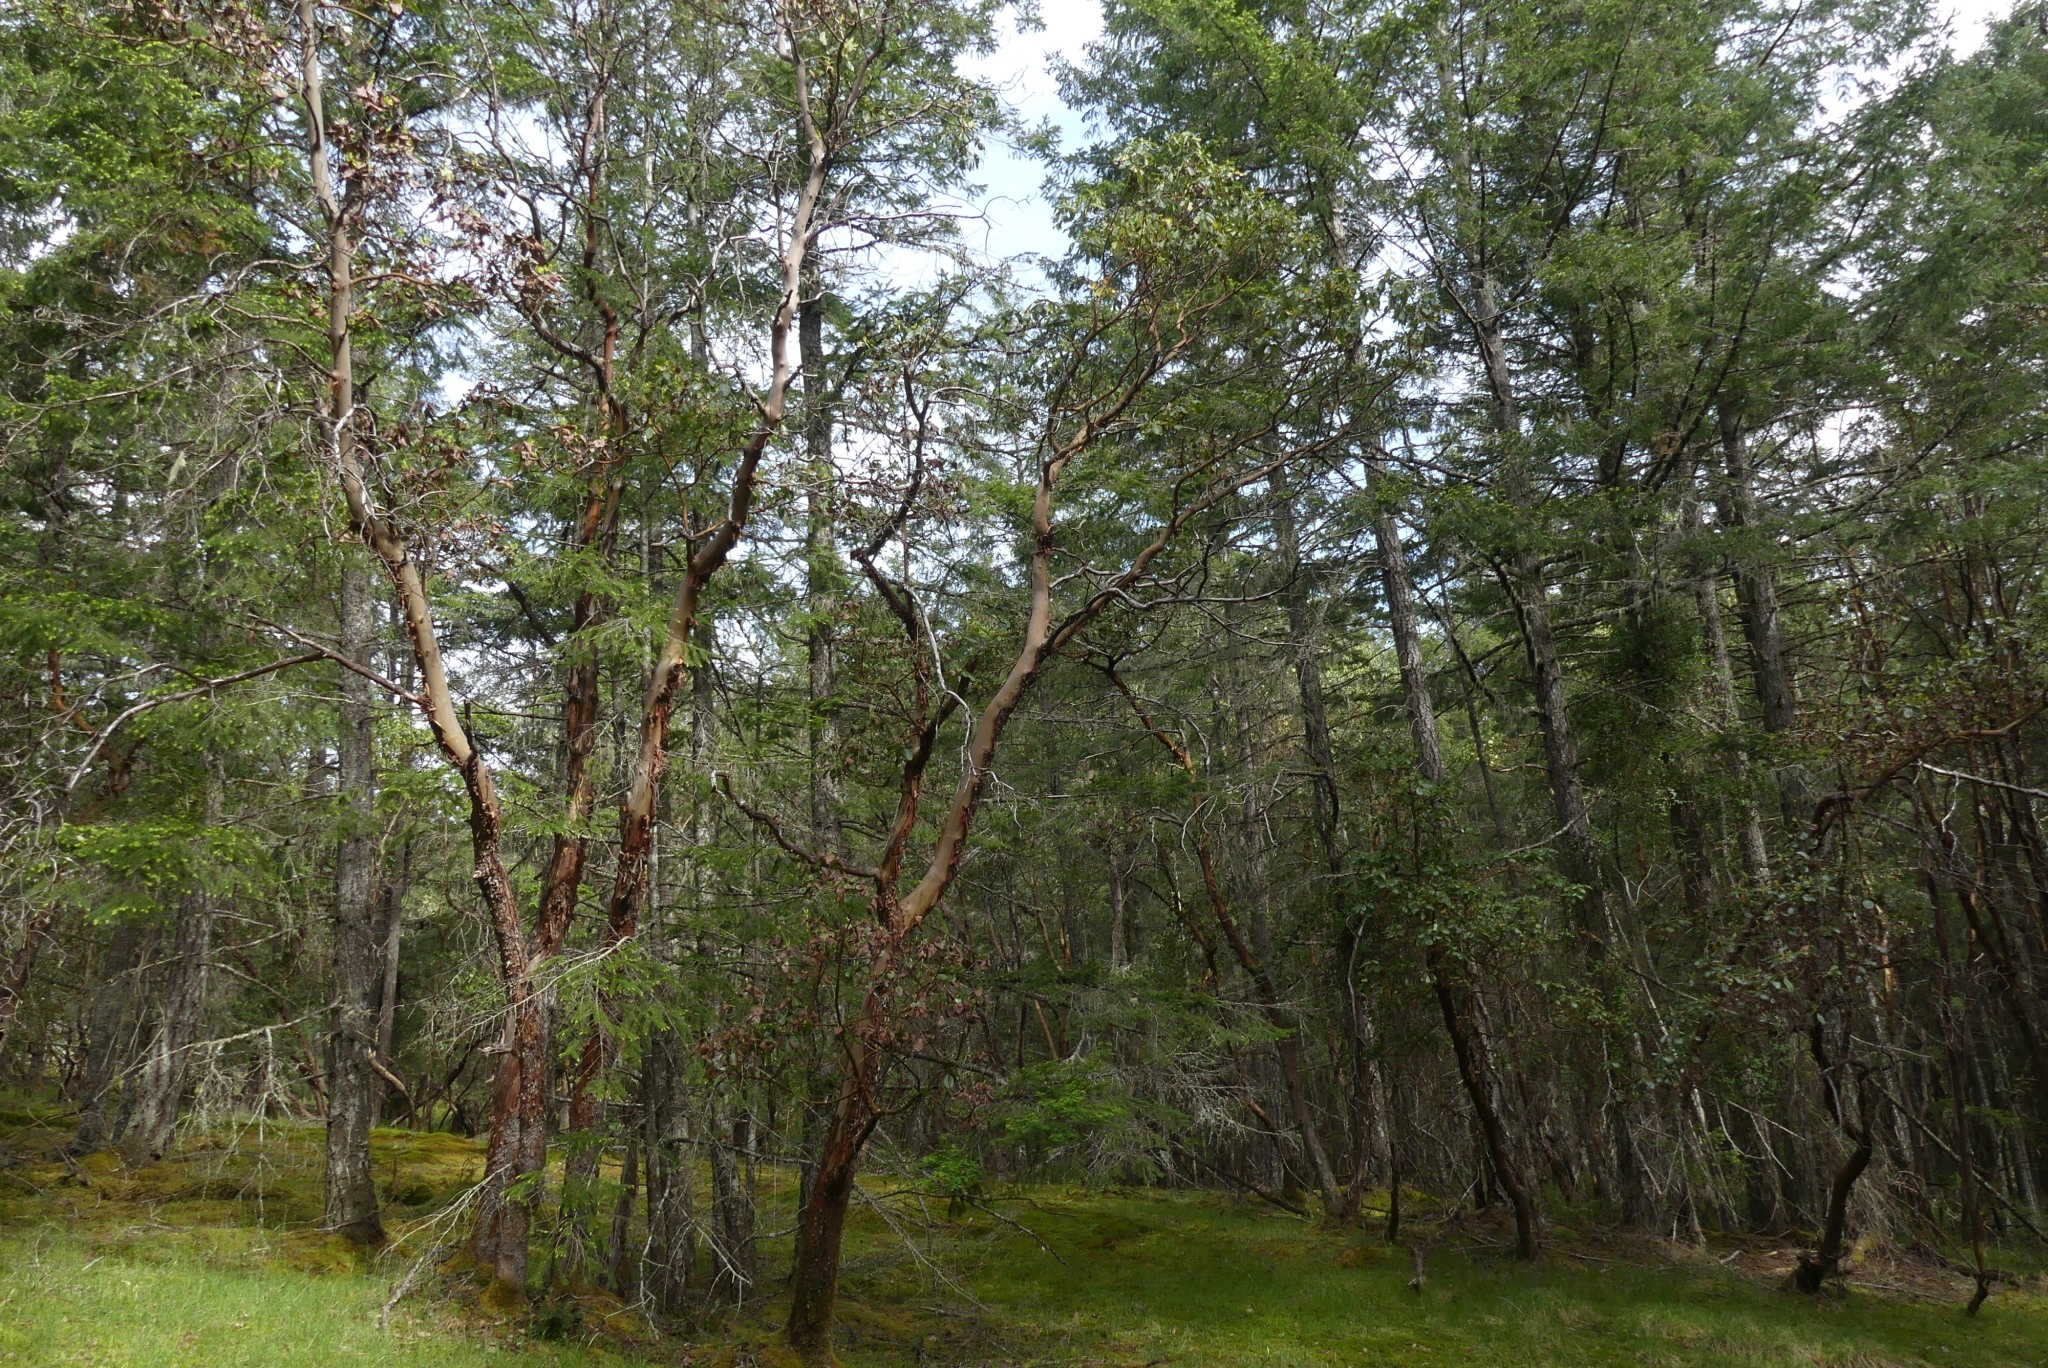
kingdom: Plantae
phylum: Tracheophyta
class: Magnoliopsida
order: Ericales
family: Ericaceae
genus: Arbutus
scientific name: Arbutus menziesii
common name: Pacific madrone
